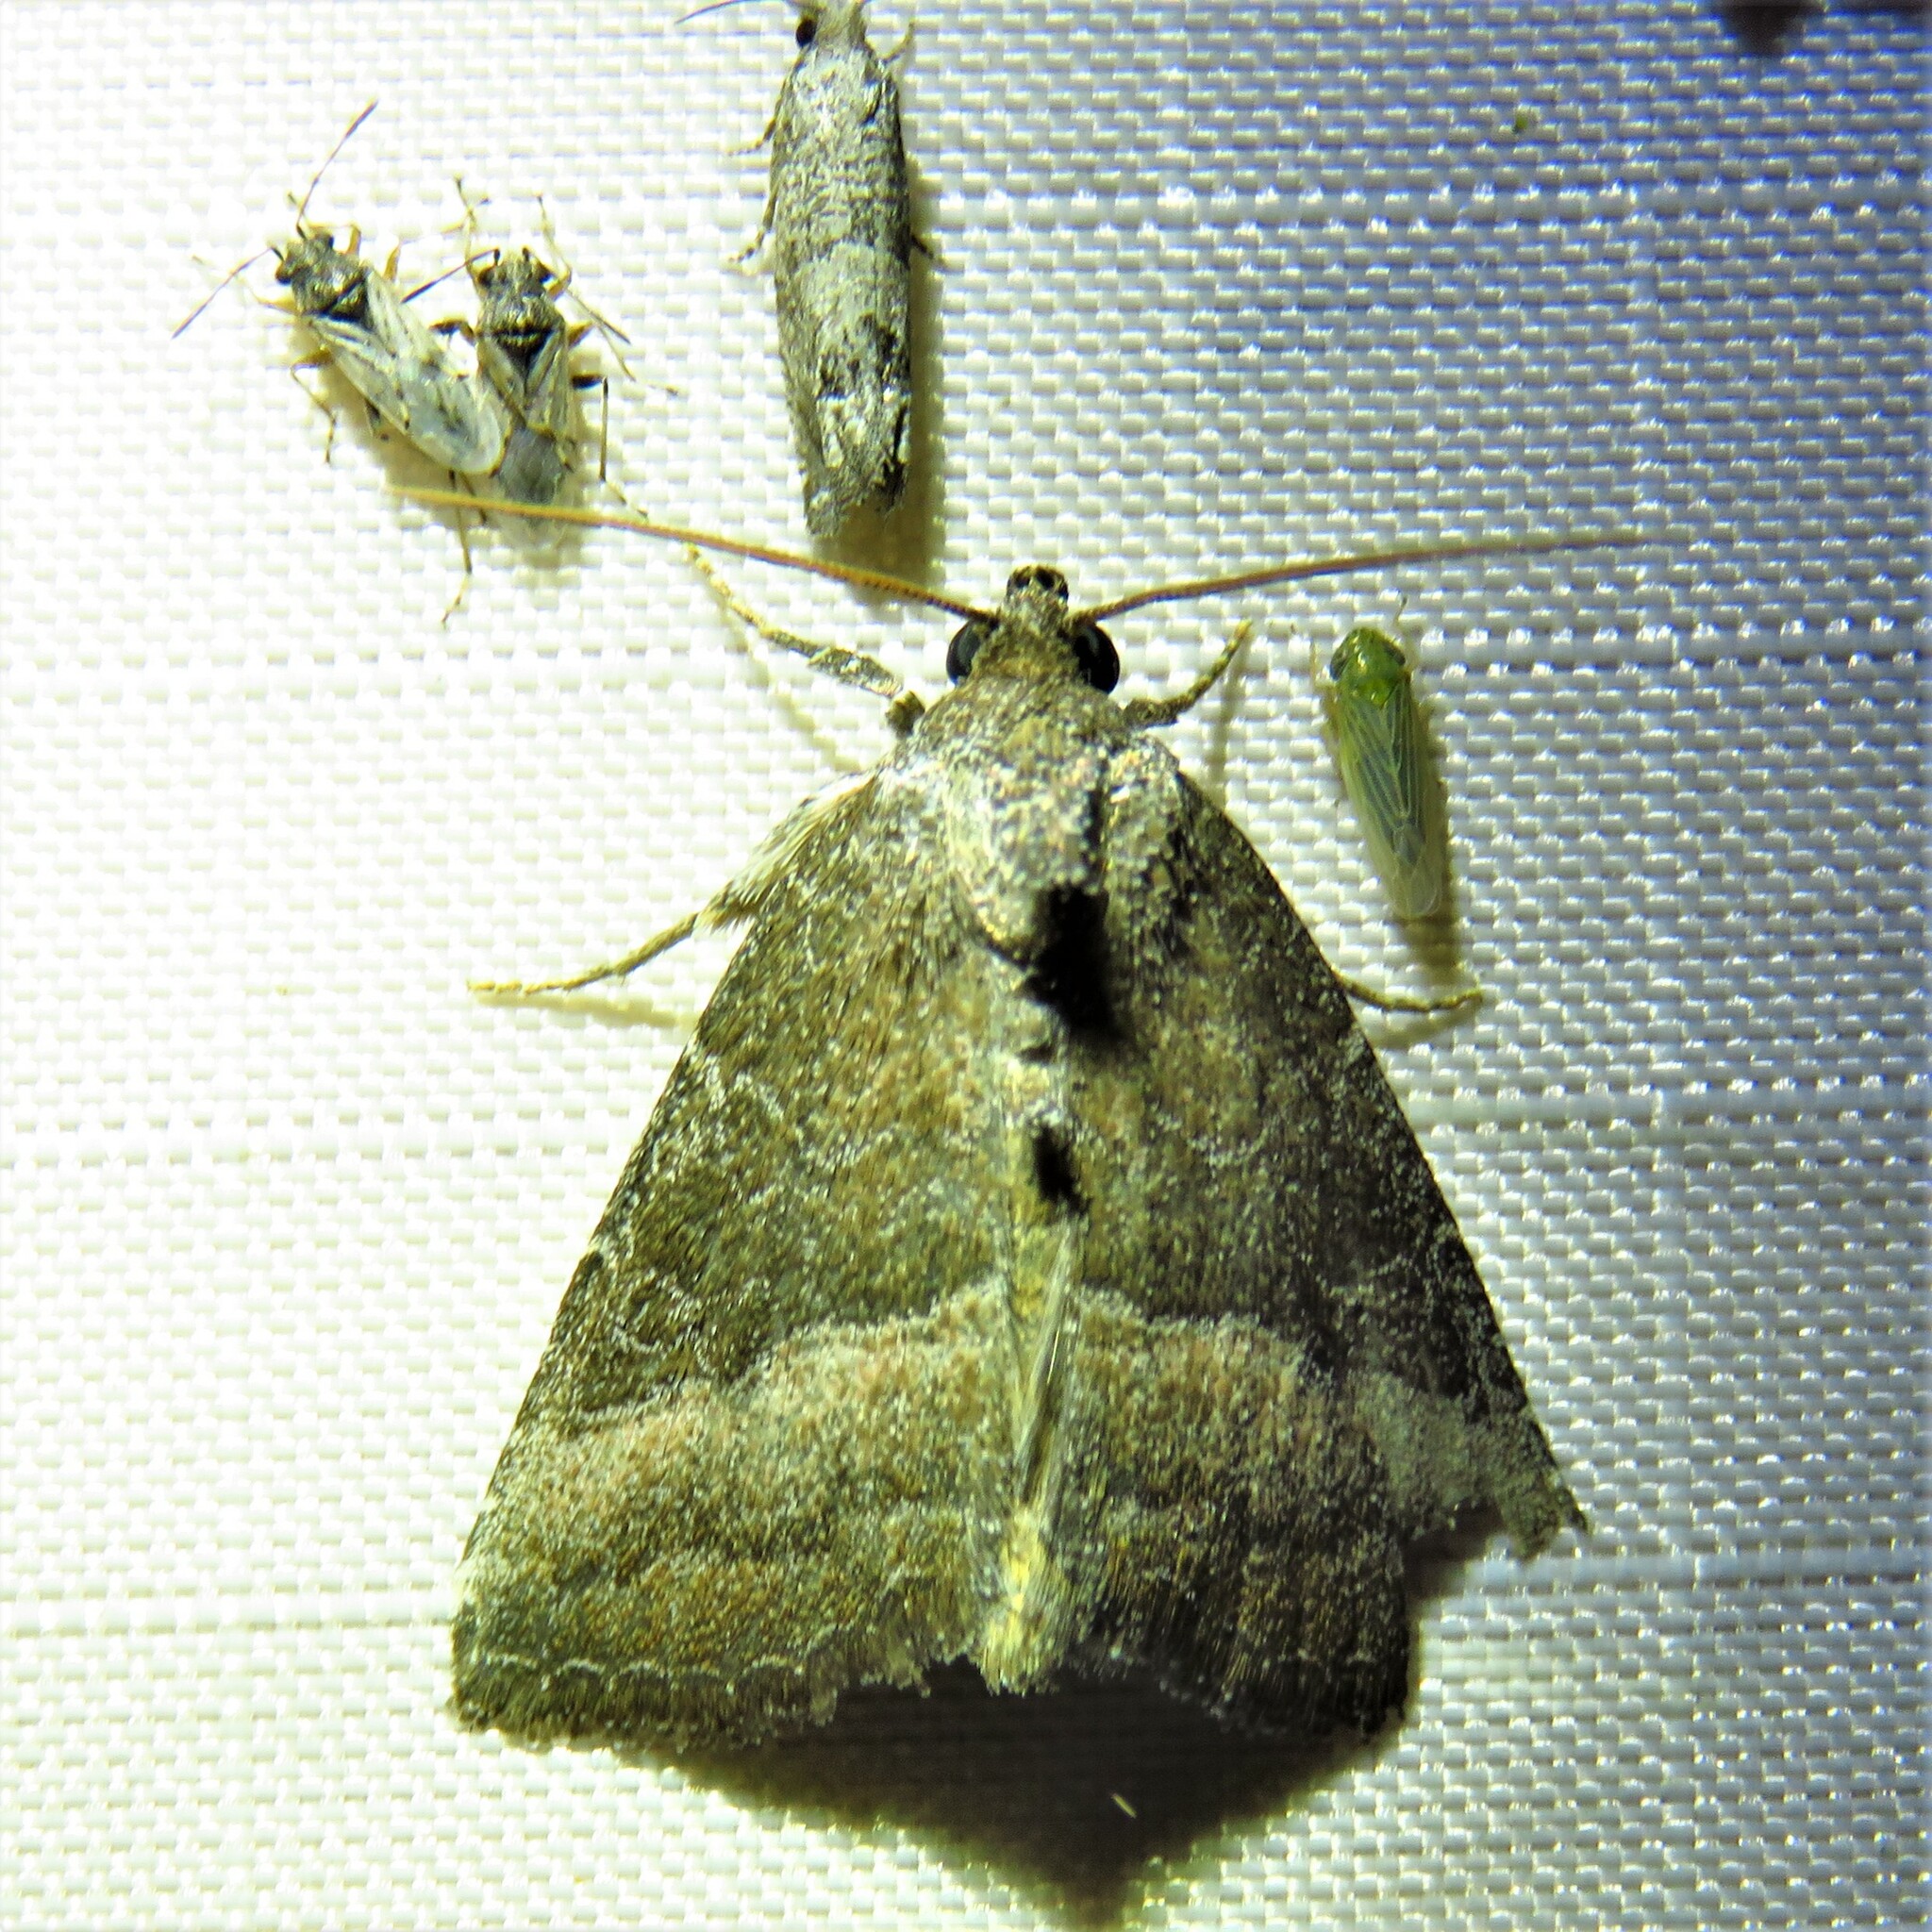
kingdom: Animalia
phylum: Arthropoda
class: Insecta
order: Lepidoptera
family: Noctuidae
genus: Ogdoconta
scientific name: Ogdoconta cinereola
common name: Common pinkband
